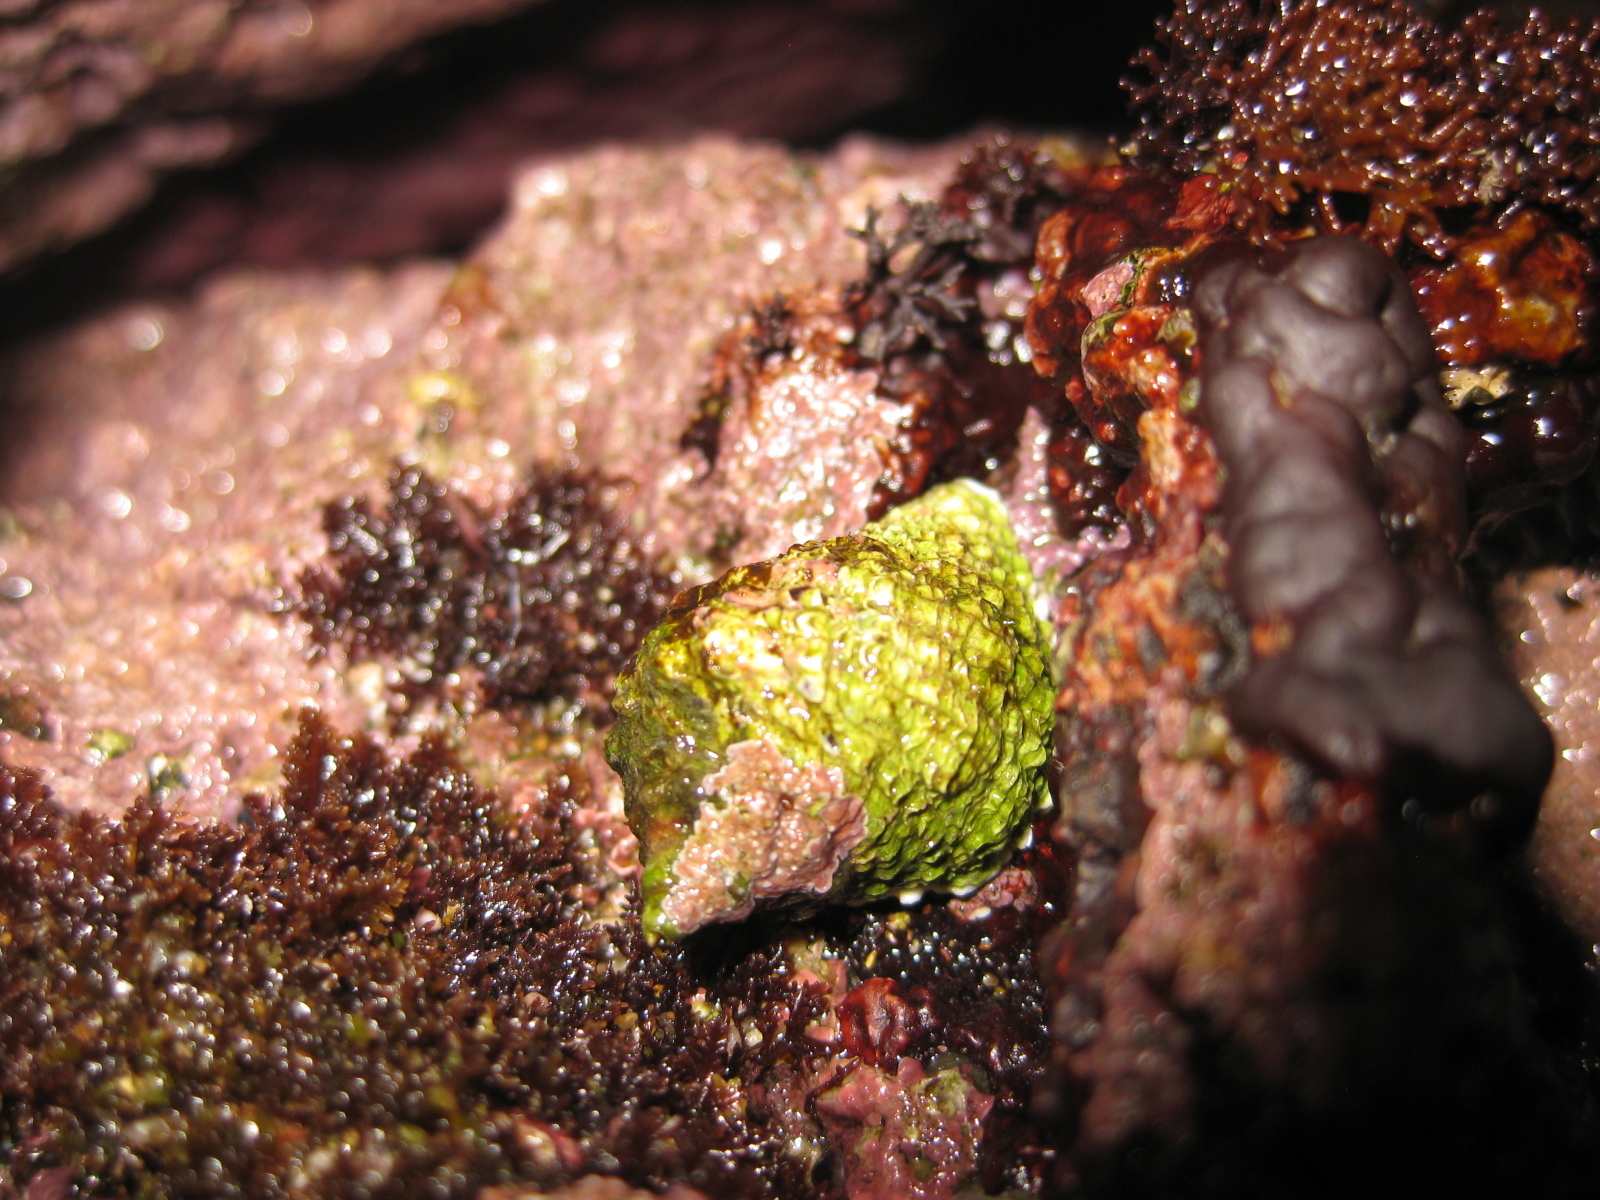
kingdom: Animalia
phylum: Mollusca
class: Gastropoda
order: Neogastropoda
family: Muricidae
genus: Haustrum
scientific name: Haustrum haustorium
